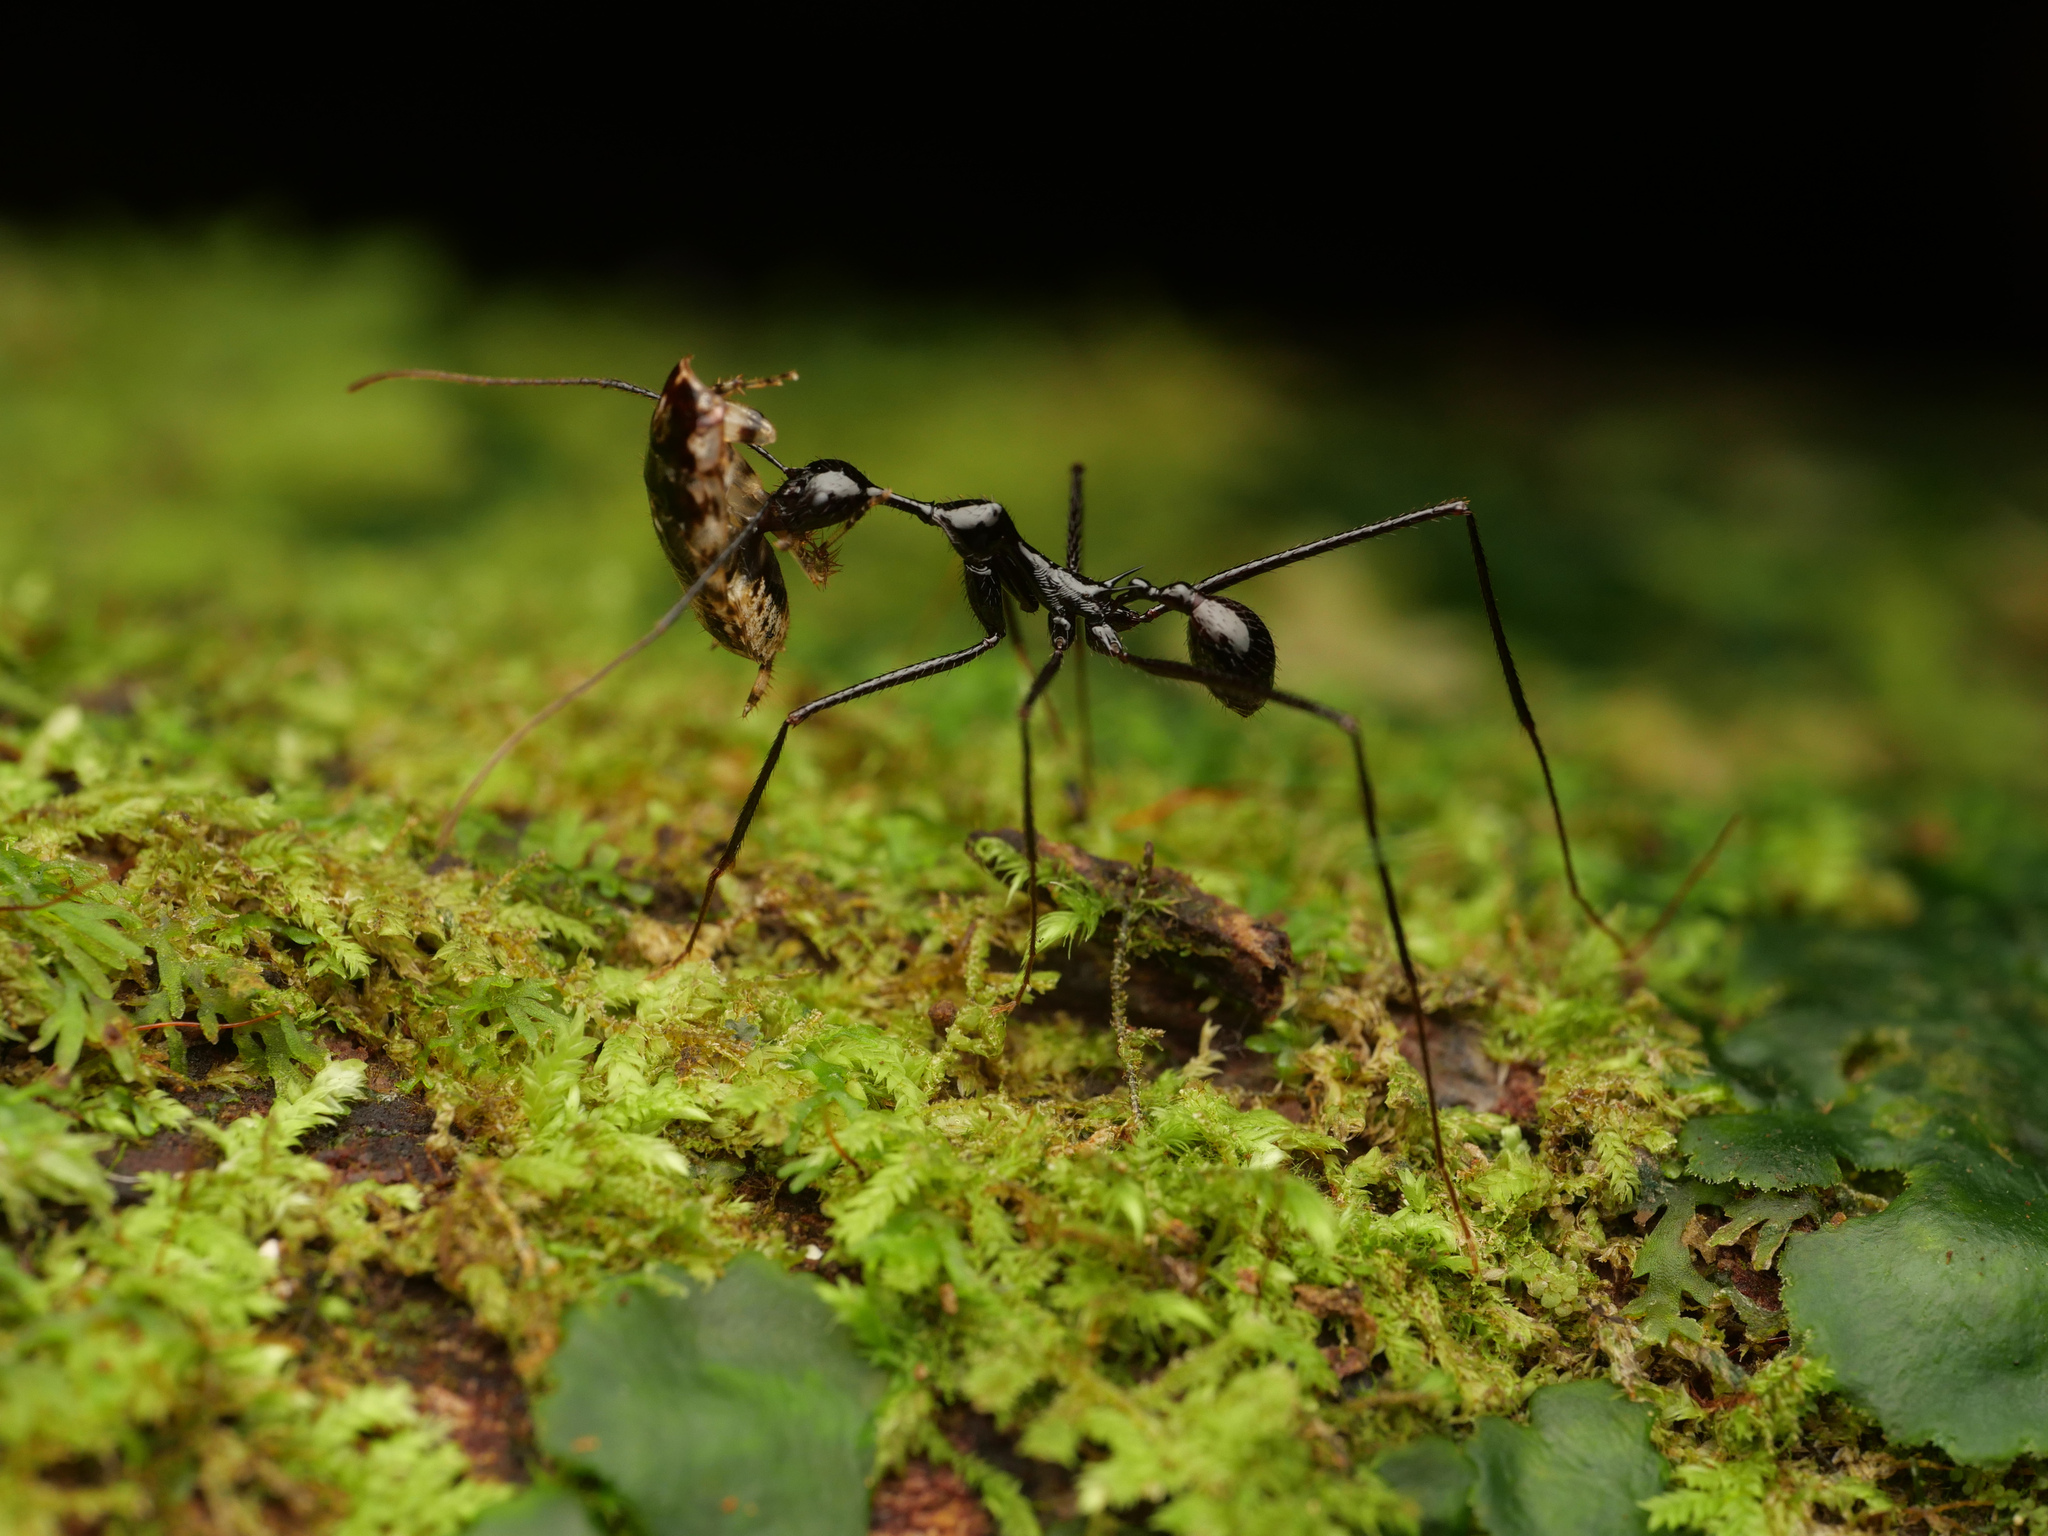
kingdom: Animalia
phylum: Arthropoda
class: Insecta
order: Hymenoptera
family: Formicidae
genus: Aphaenogaster
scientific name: Aphaenogaster dromedaria
